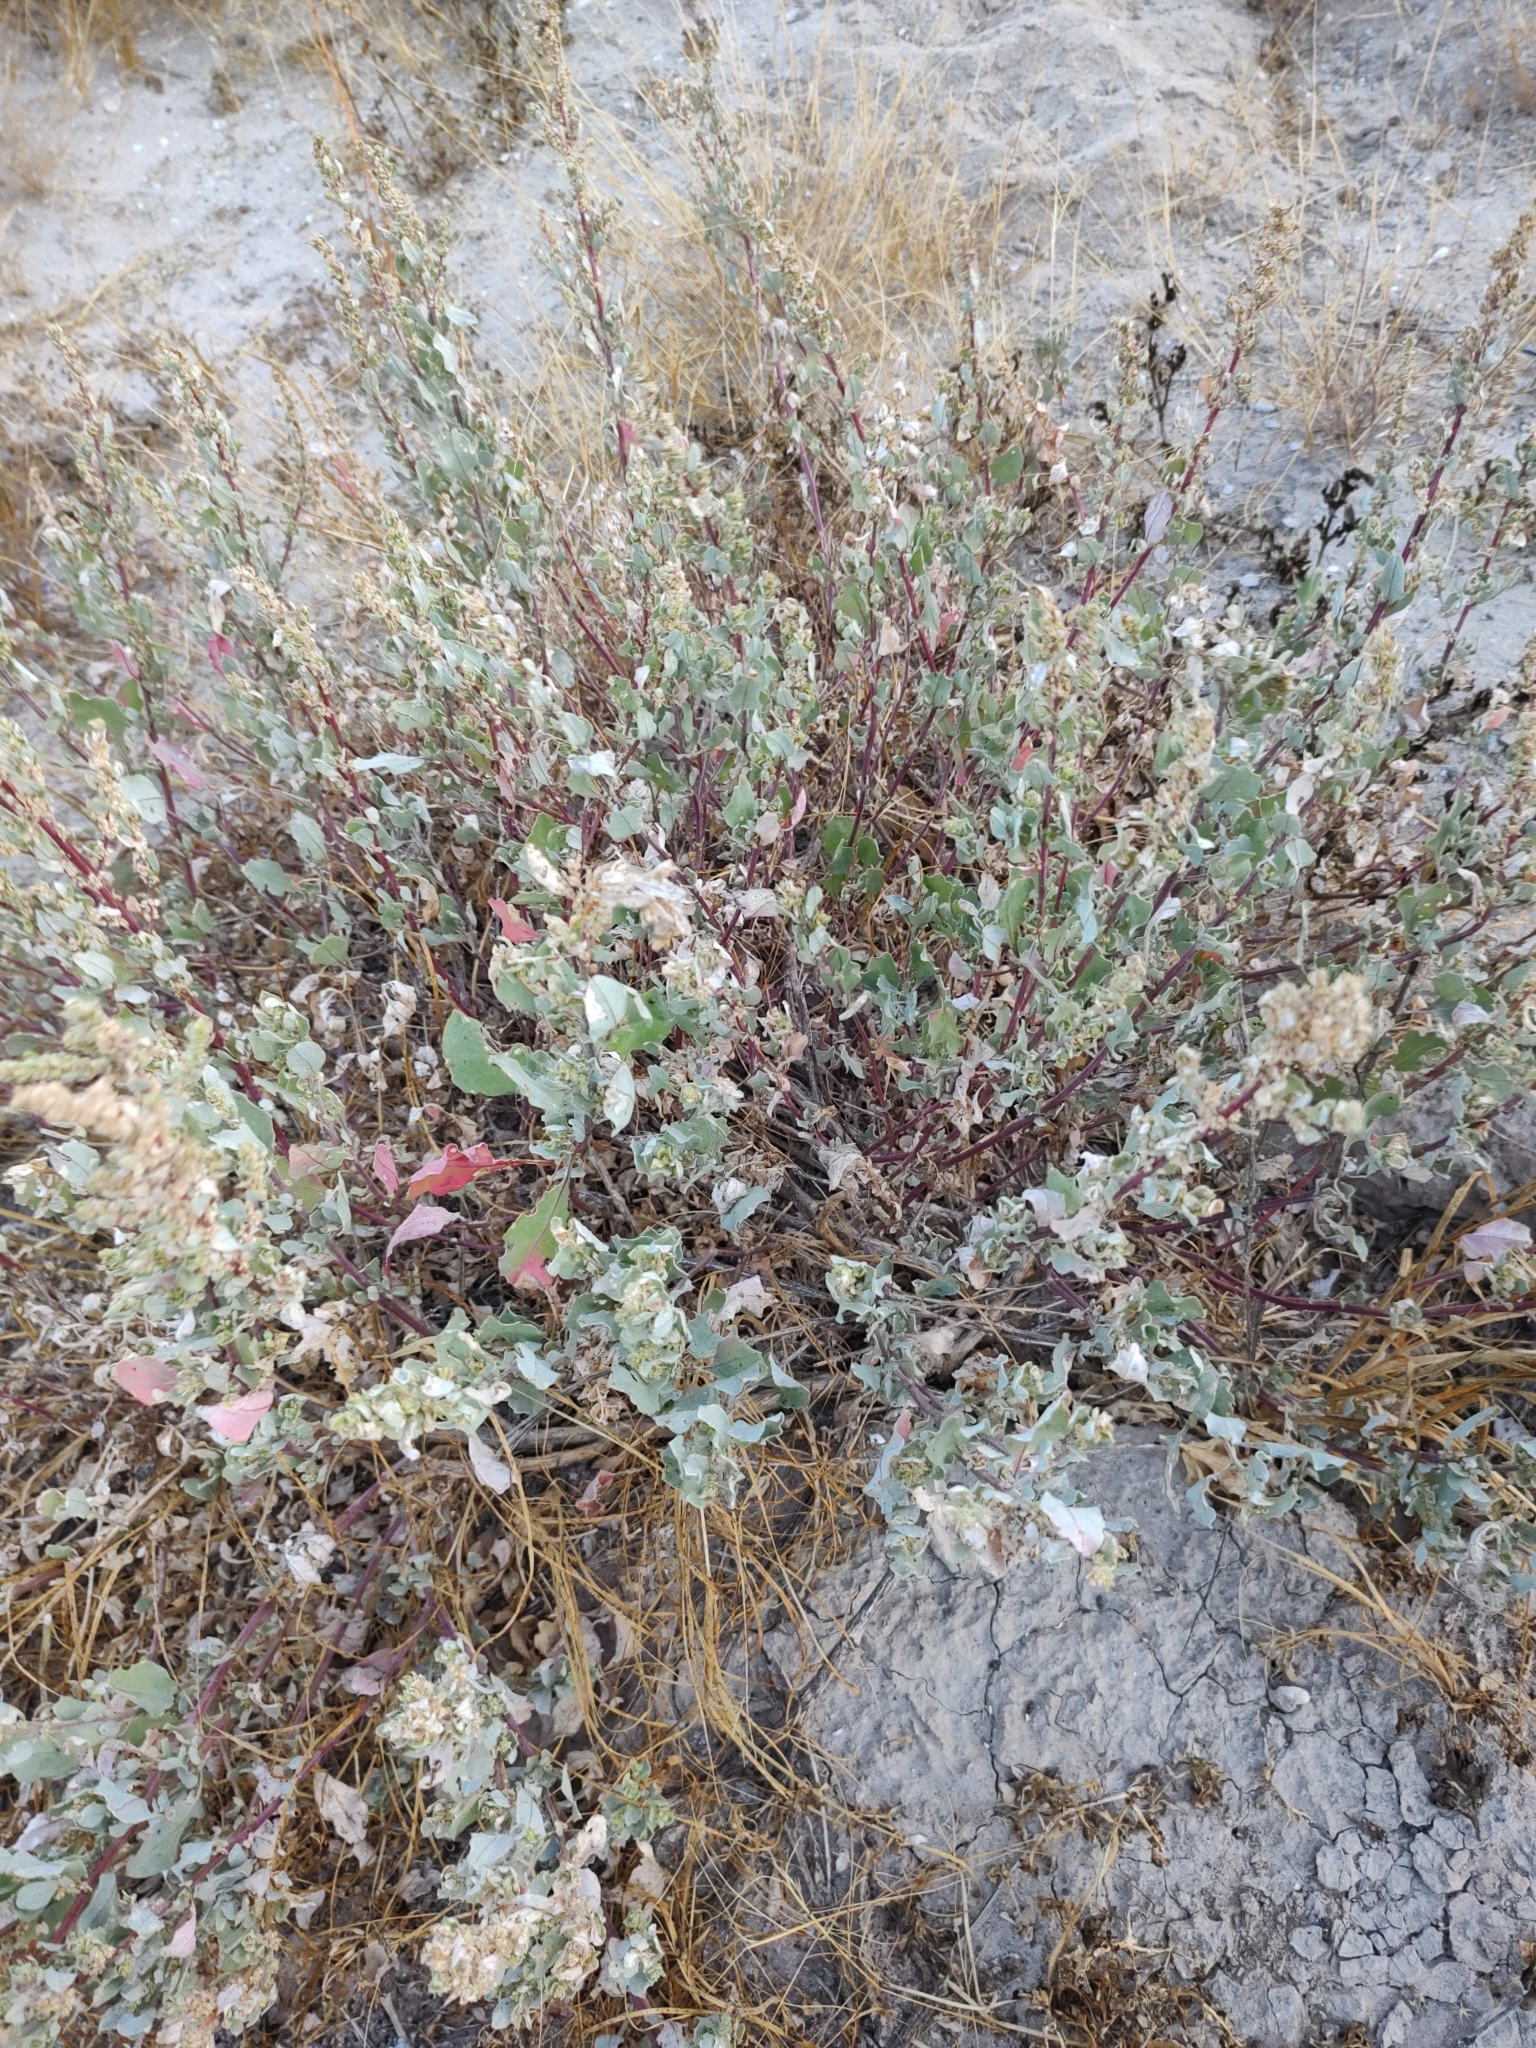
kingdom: Plantae
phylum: Tracheophyta
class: Magnoliopsida
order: Caryophyllales
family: Amaranthaceae
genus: Atriplex
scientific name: Atriplex barclayana
